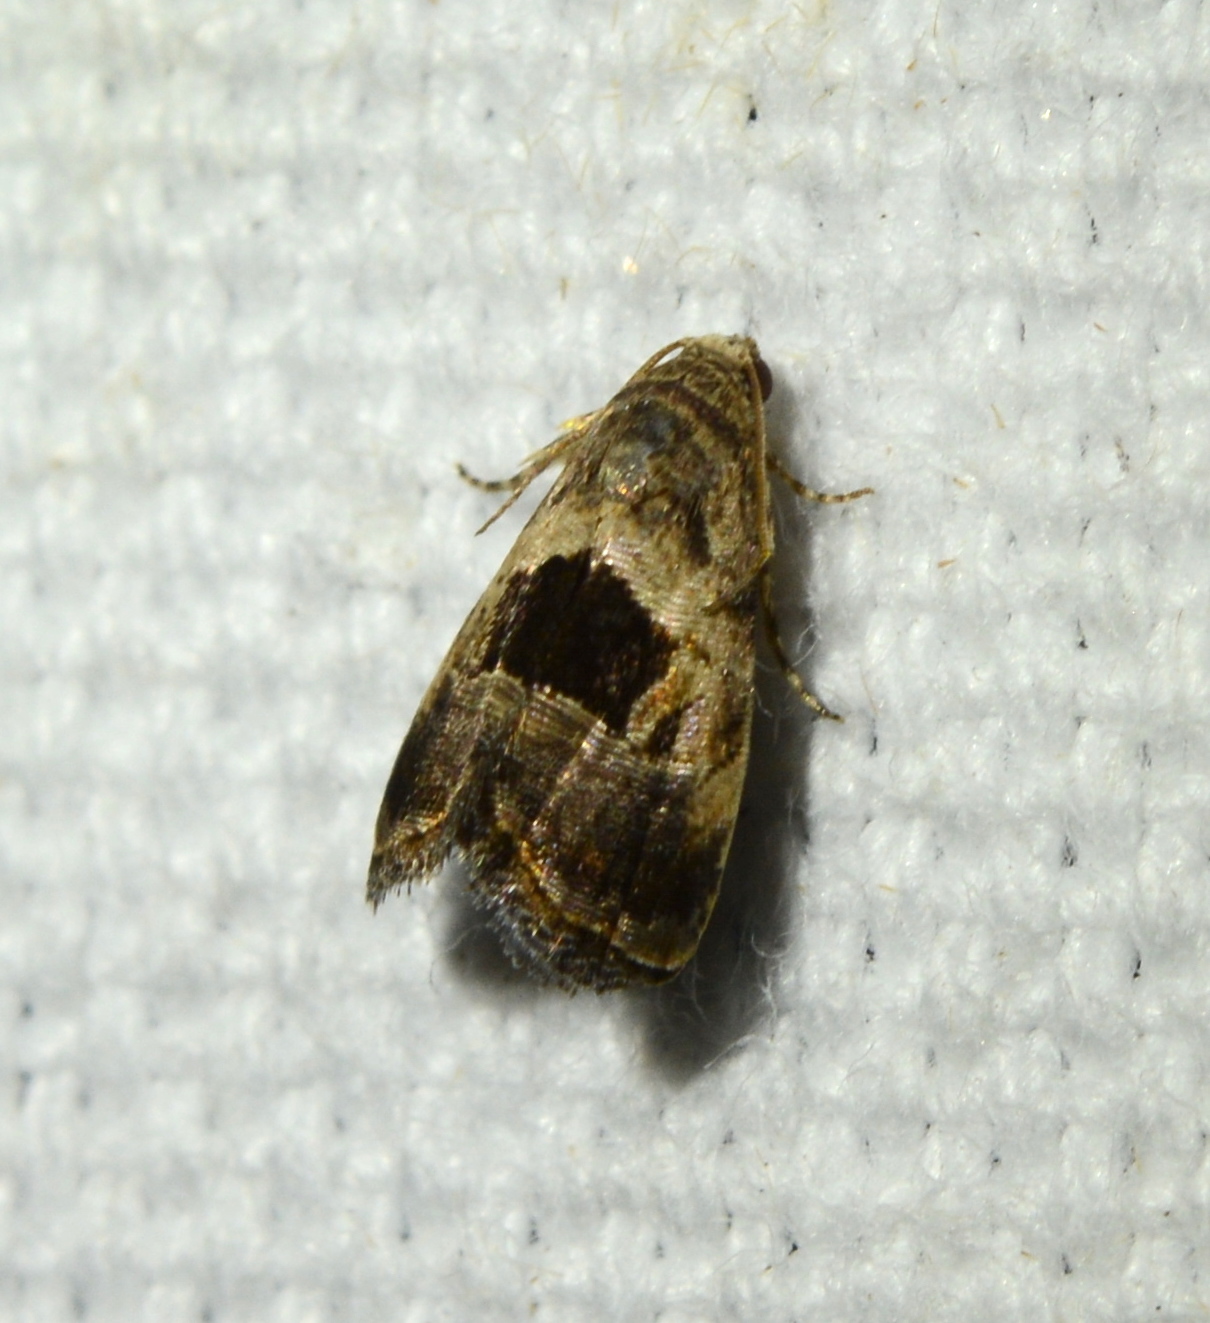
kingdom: Animalia
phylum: Arthropoda
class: Insecta
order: Lepidoptera
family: Noctuidae
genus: Tripudia
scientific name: Tripudia rectangula
